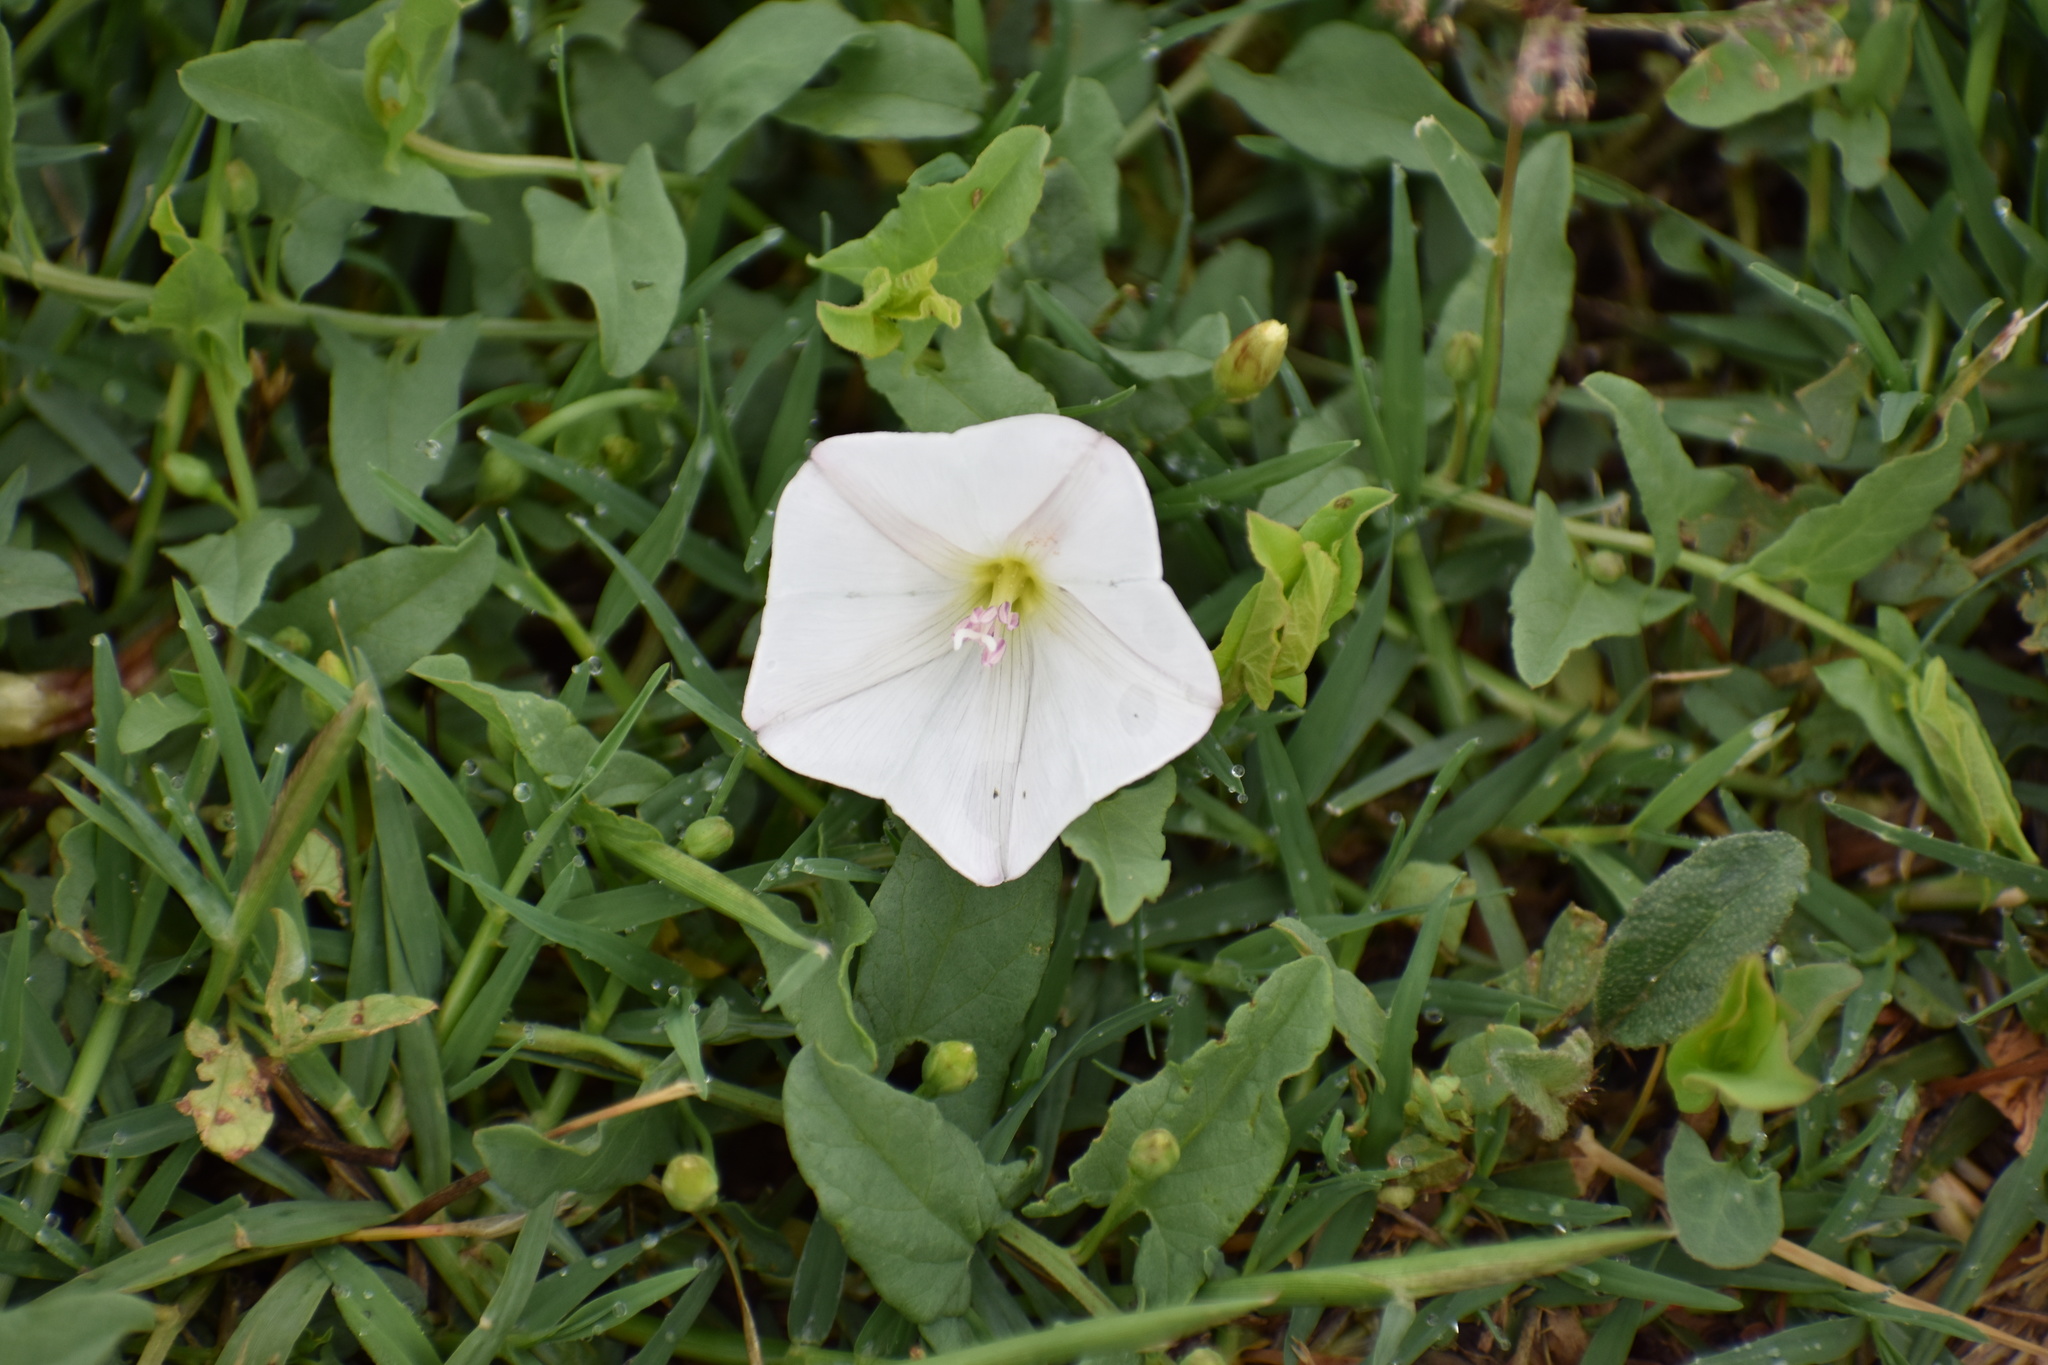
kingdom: Plantae
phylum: Tracheophyta
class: Magnoliopsida
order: Solanales
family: Convolvulaceae
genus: Convolvulus
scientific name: Convolvulus arvensis
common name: Field bindweed
